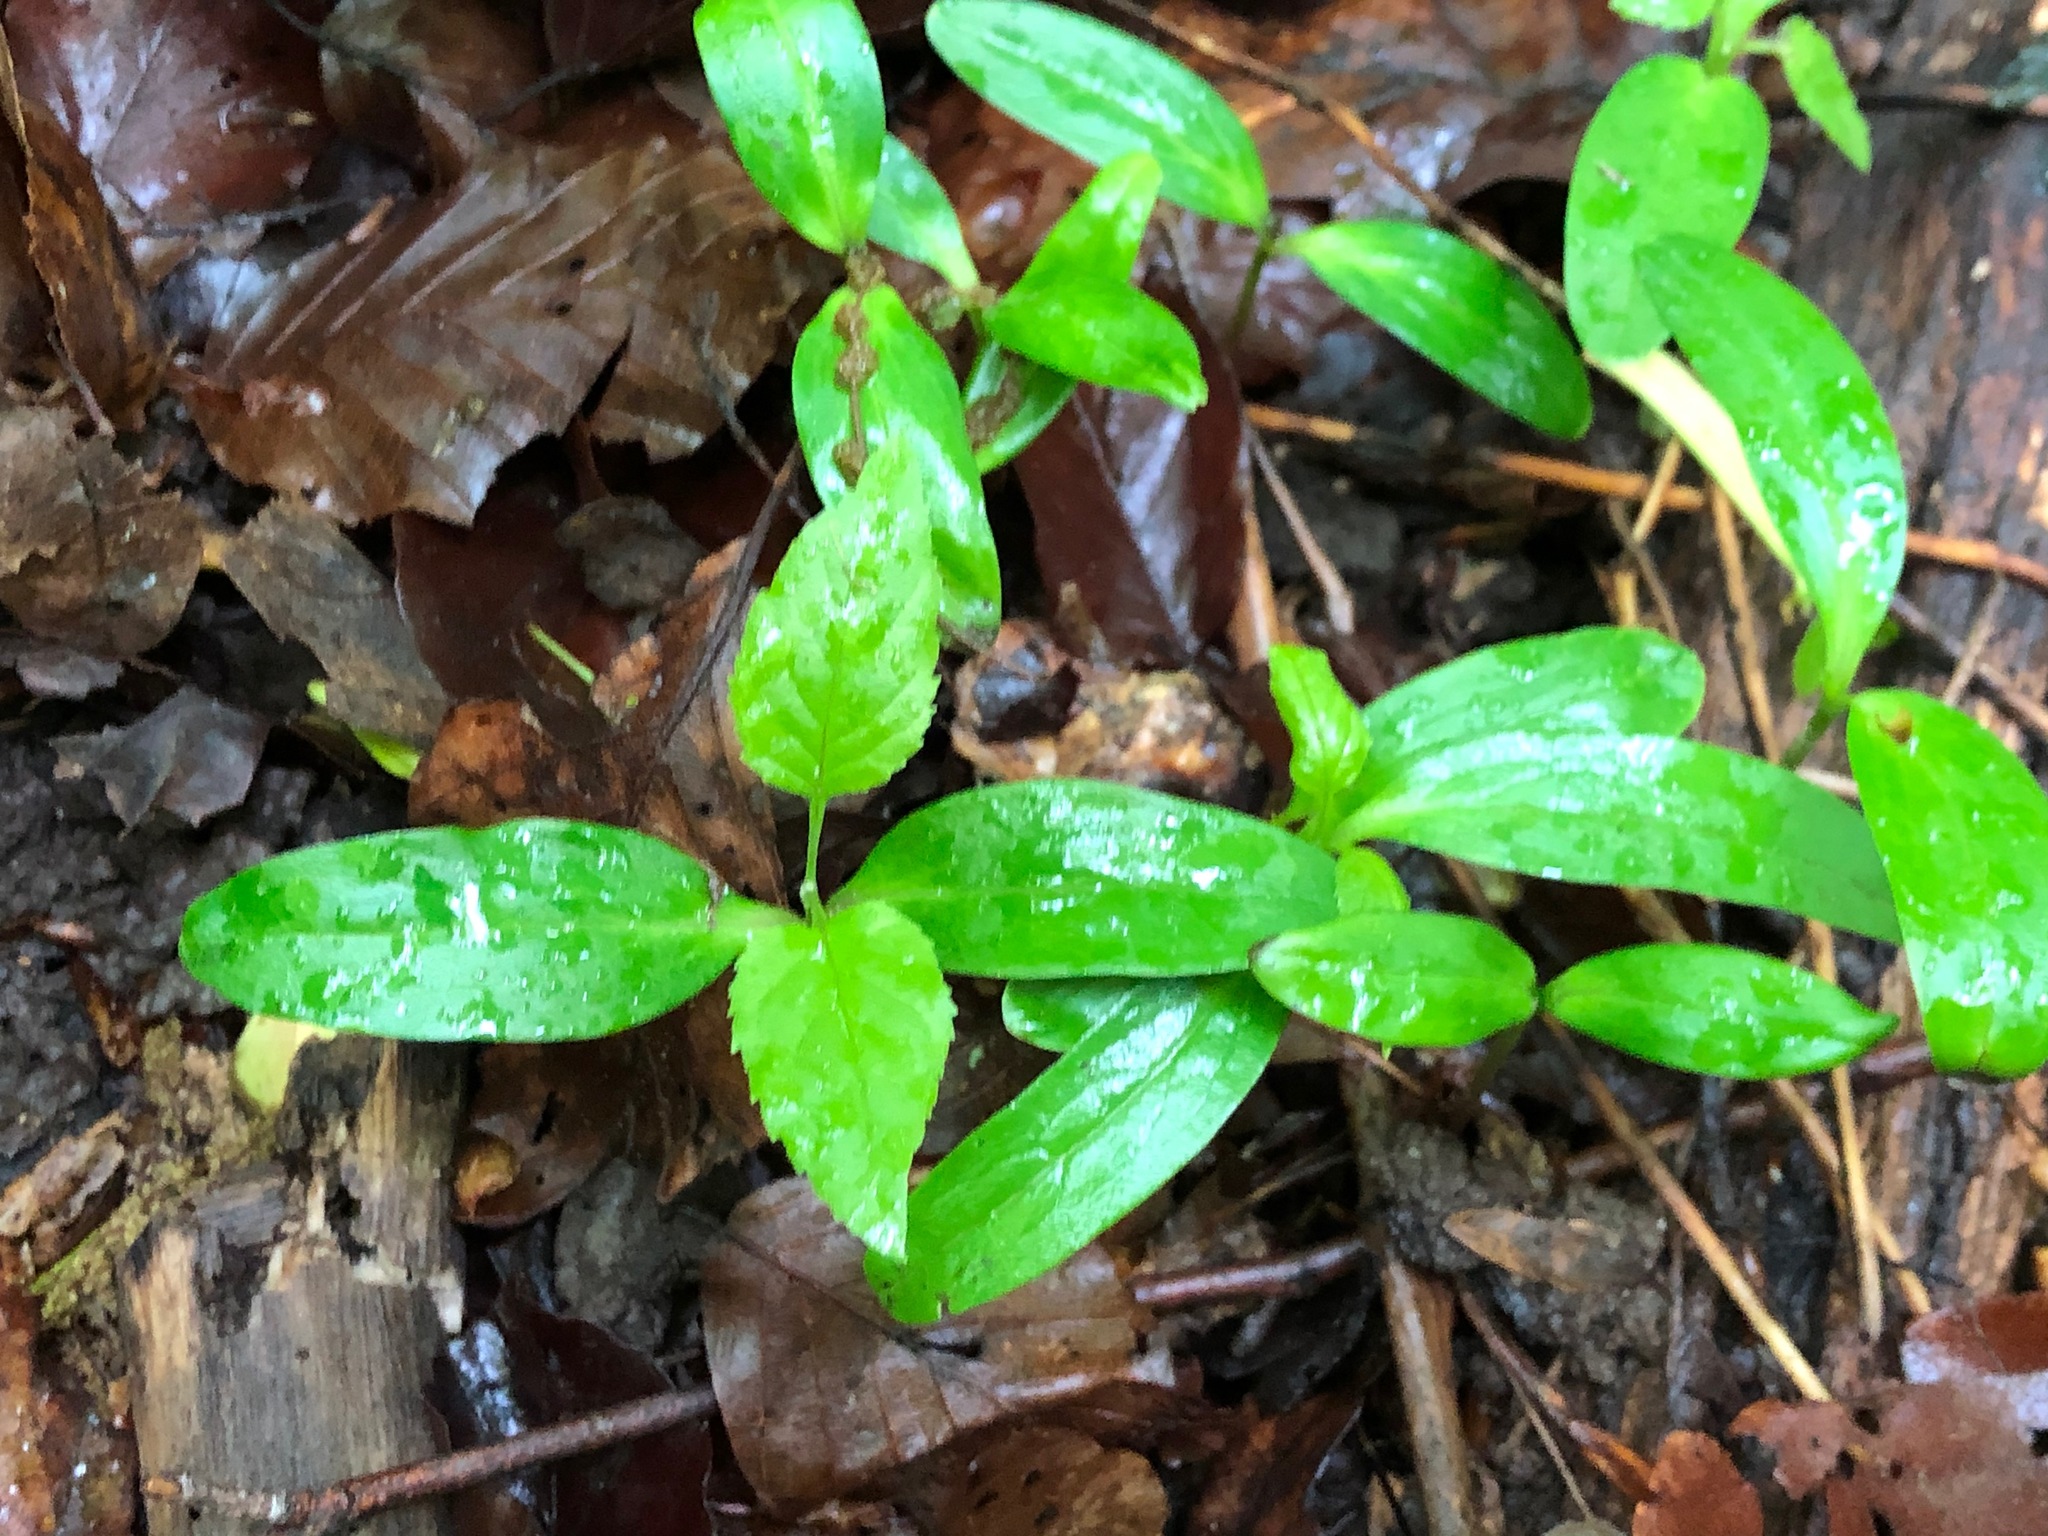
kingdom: Plantae
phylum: Tracheophyta
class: Magnoliopsida
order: Lamiales
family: Oleaceae
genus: Fraxinus
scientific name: Fraxinus excelsior
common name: European ash
